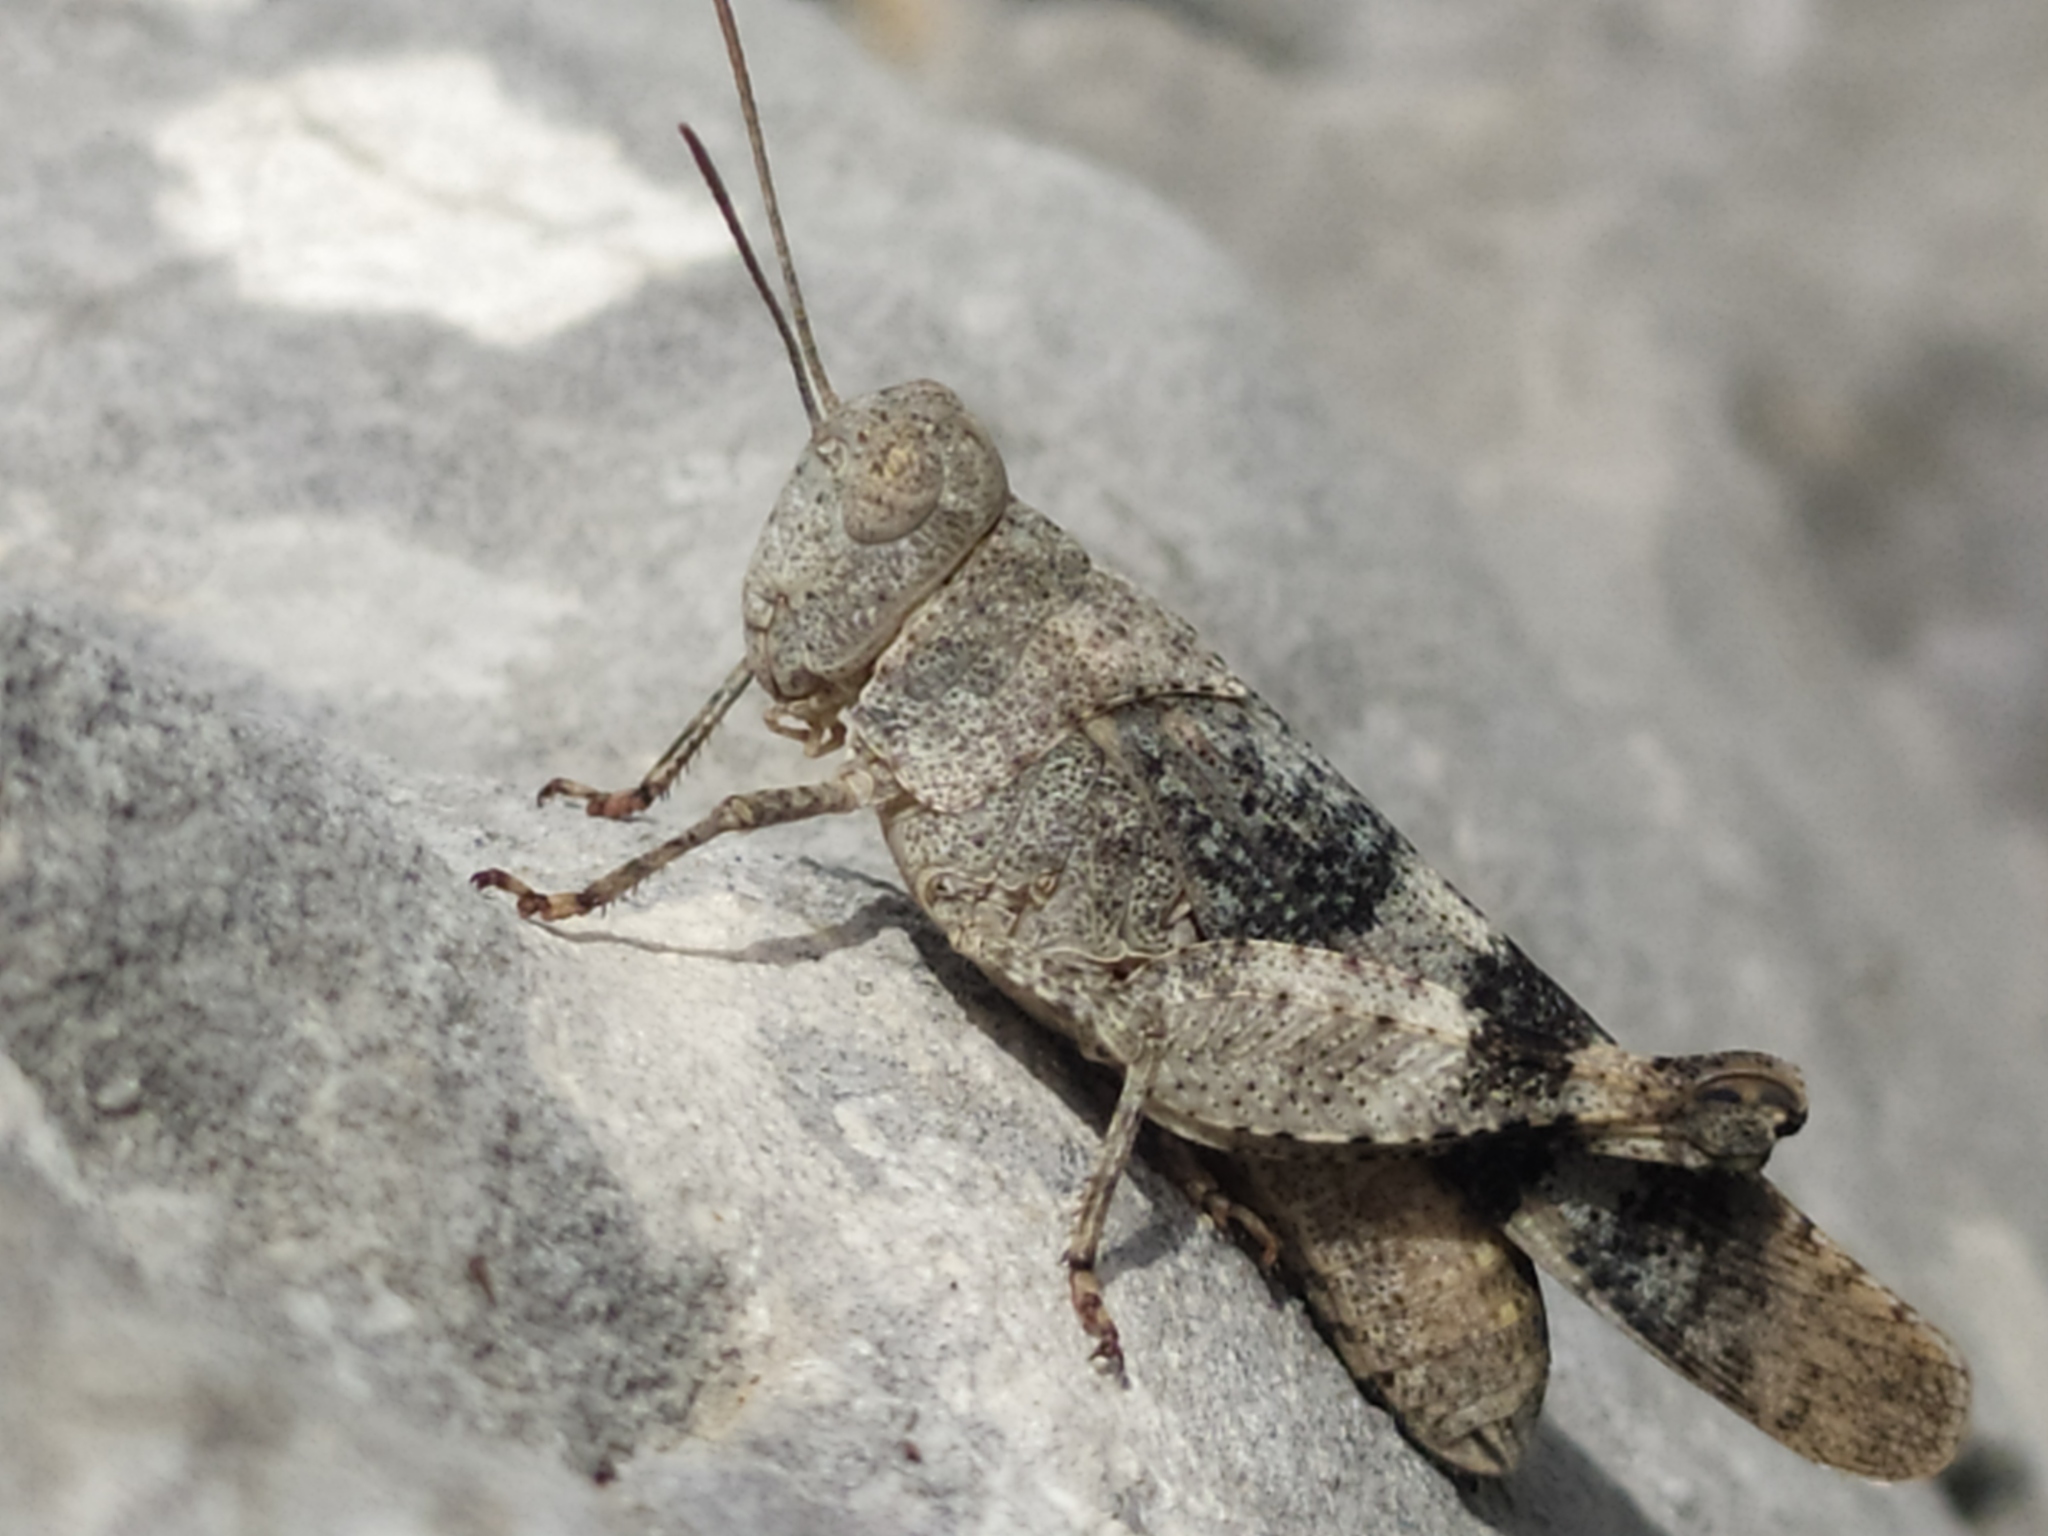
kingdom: Animalia
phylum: Arthropoda
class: Insecta
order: Orthoptera
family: Acrididae
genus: Oedipoda
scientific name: Oedipoda germanica
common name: Red band-winged grasshopper
